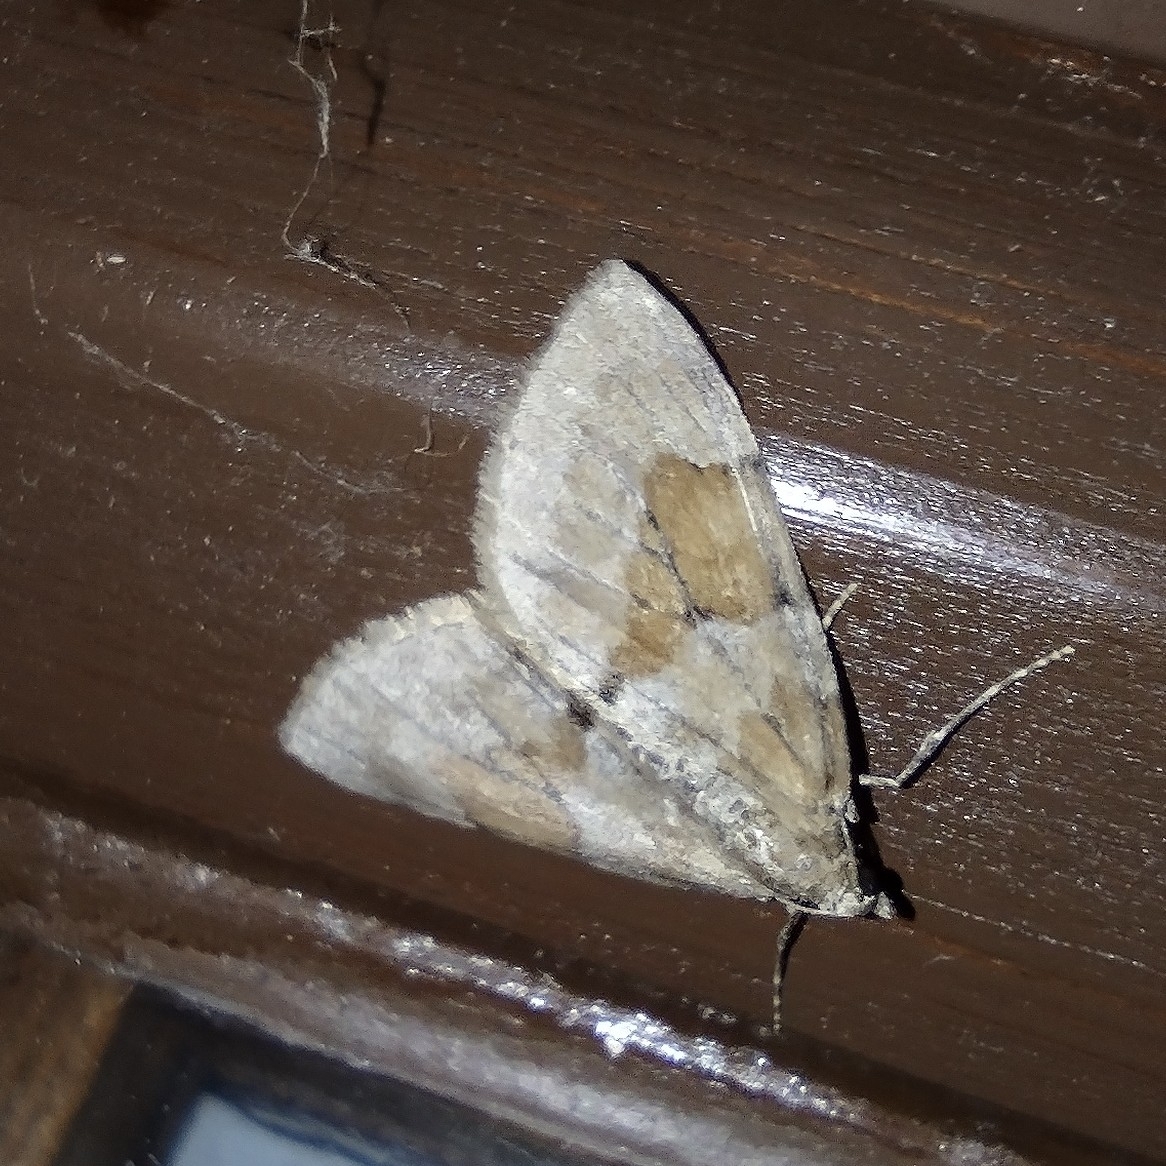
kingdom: Animalia
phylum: Arthropoda
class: Insecta
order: Lepidoptera
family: Geometridae
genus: Thera
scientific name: Thera obeliscata
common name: Grey pine carpet
